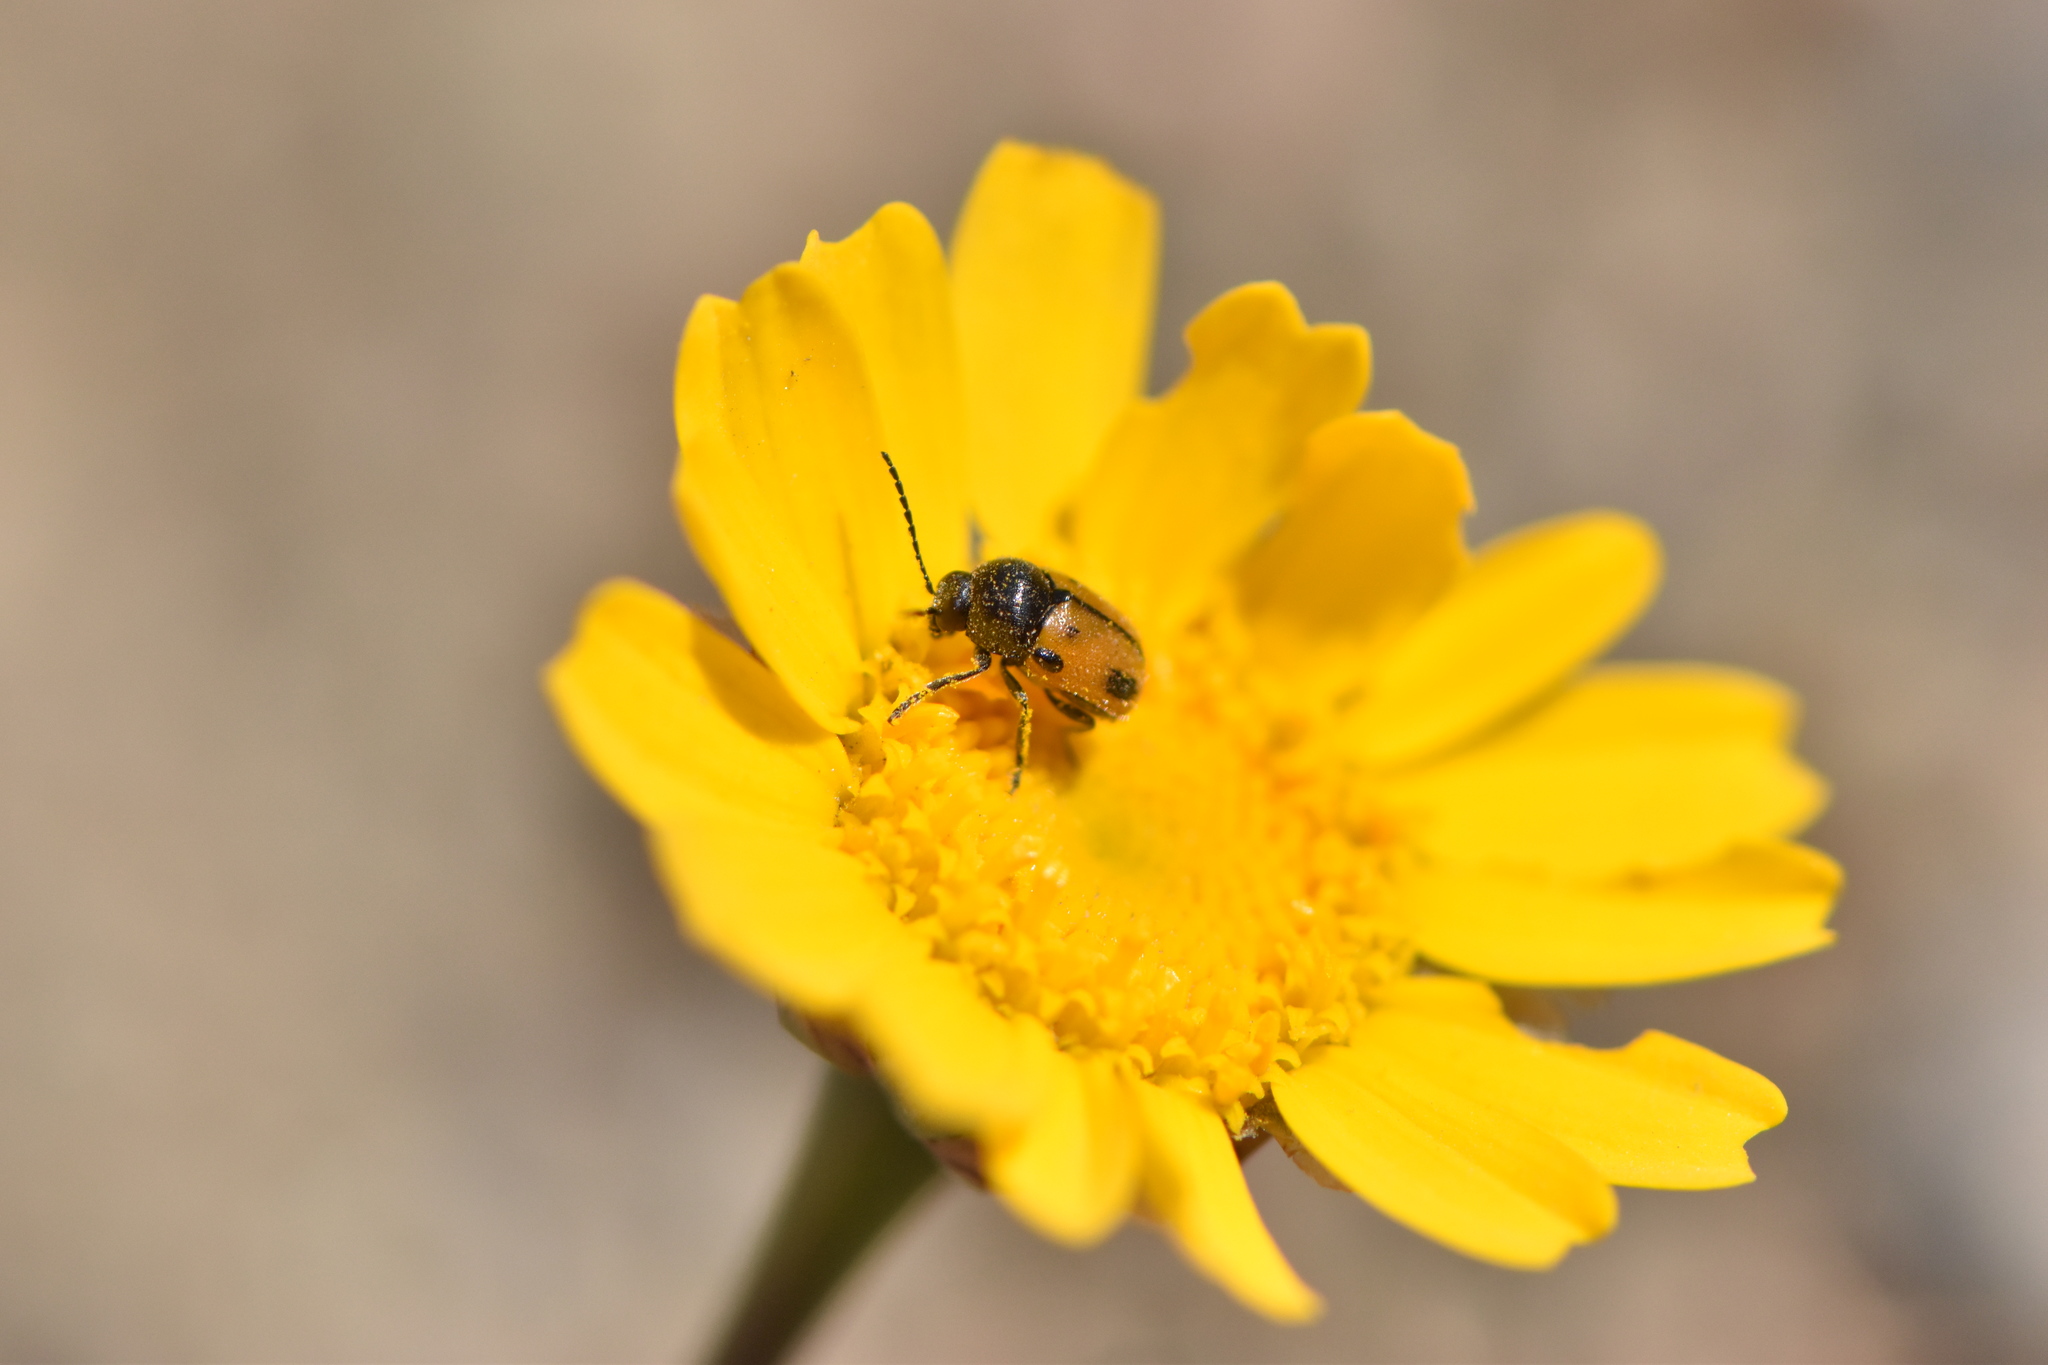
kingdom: Animalia
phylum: Arthropoda
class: Insecta
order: Coleoptera
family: Chrysomelidae
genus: Cryptocephalus
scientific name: Cryptocephalus rugicollis
